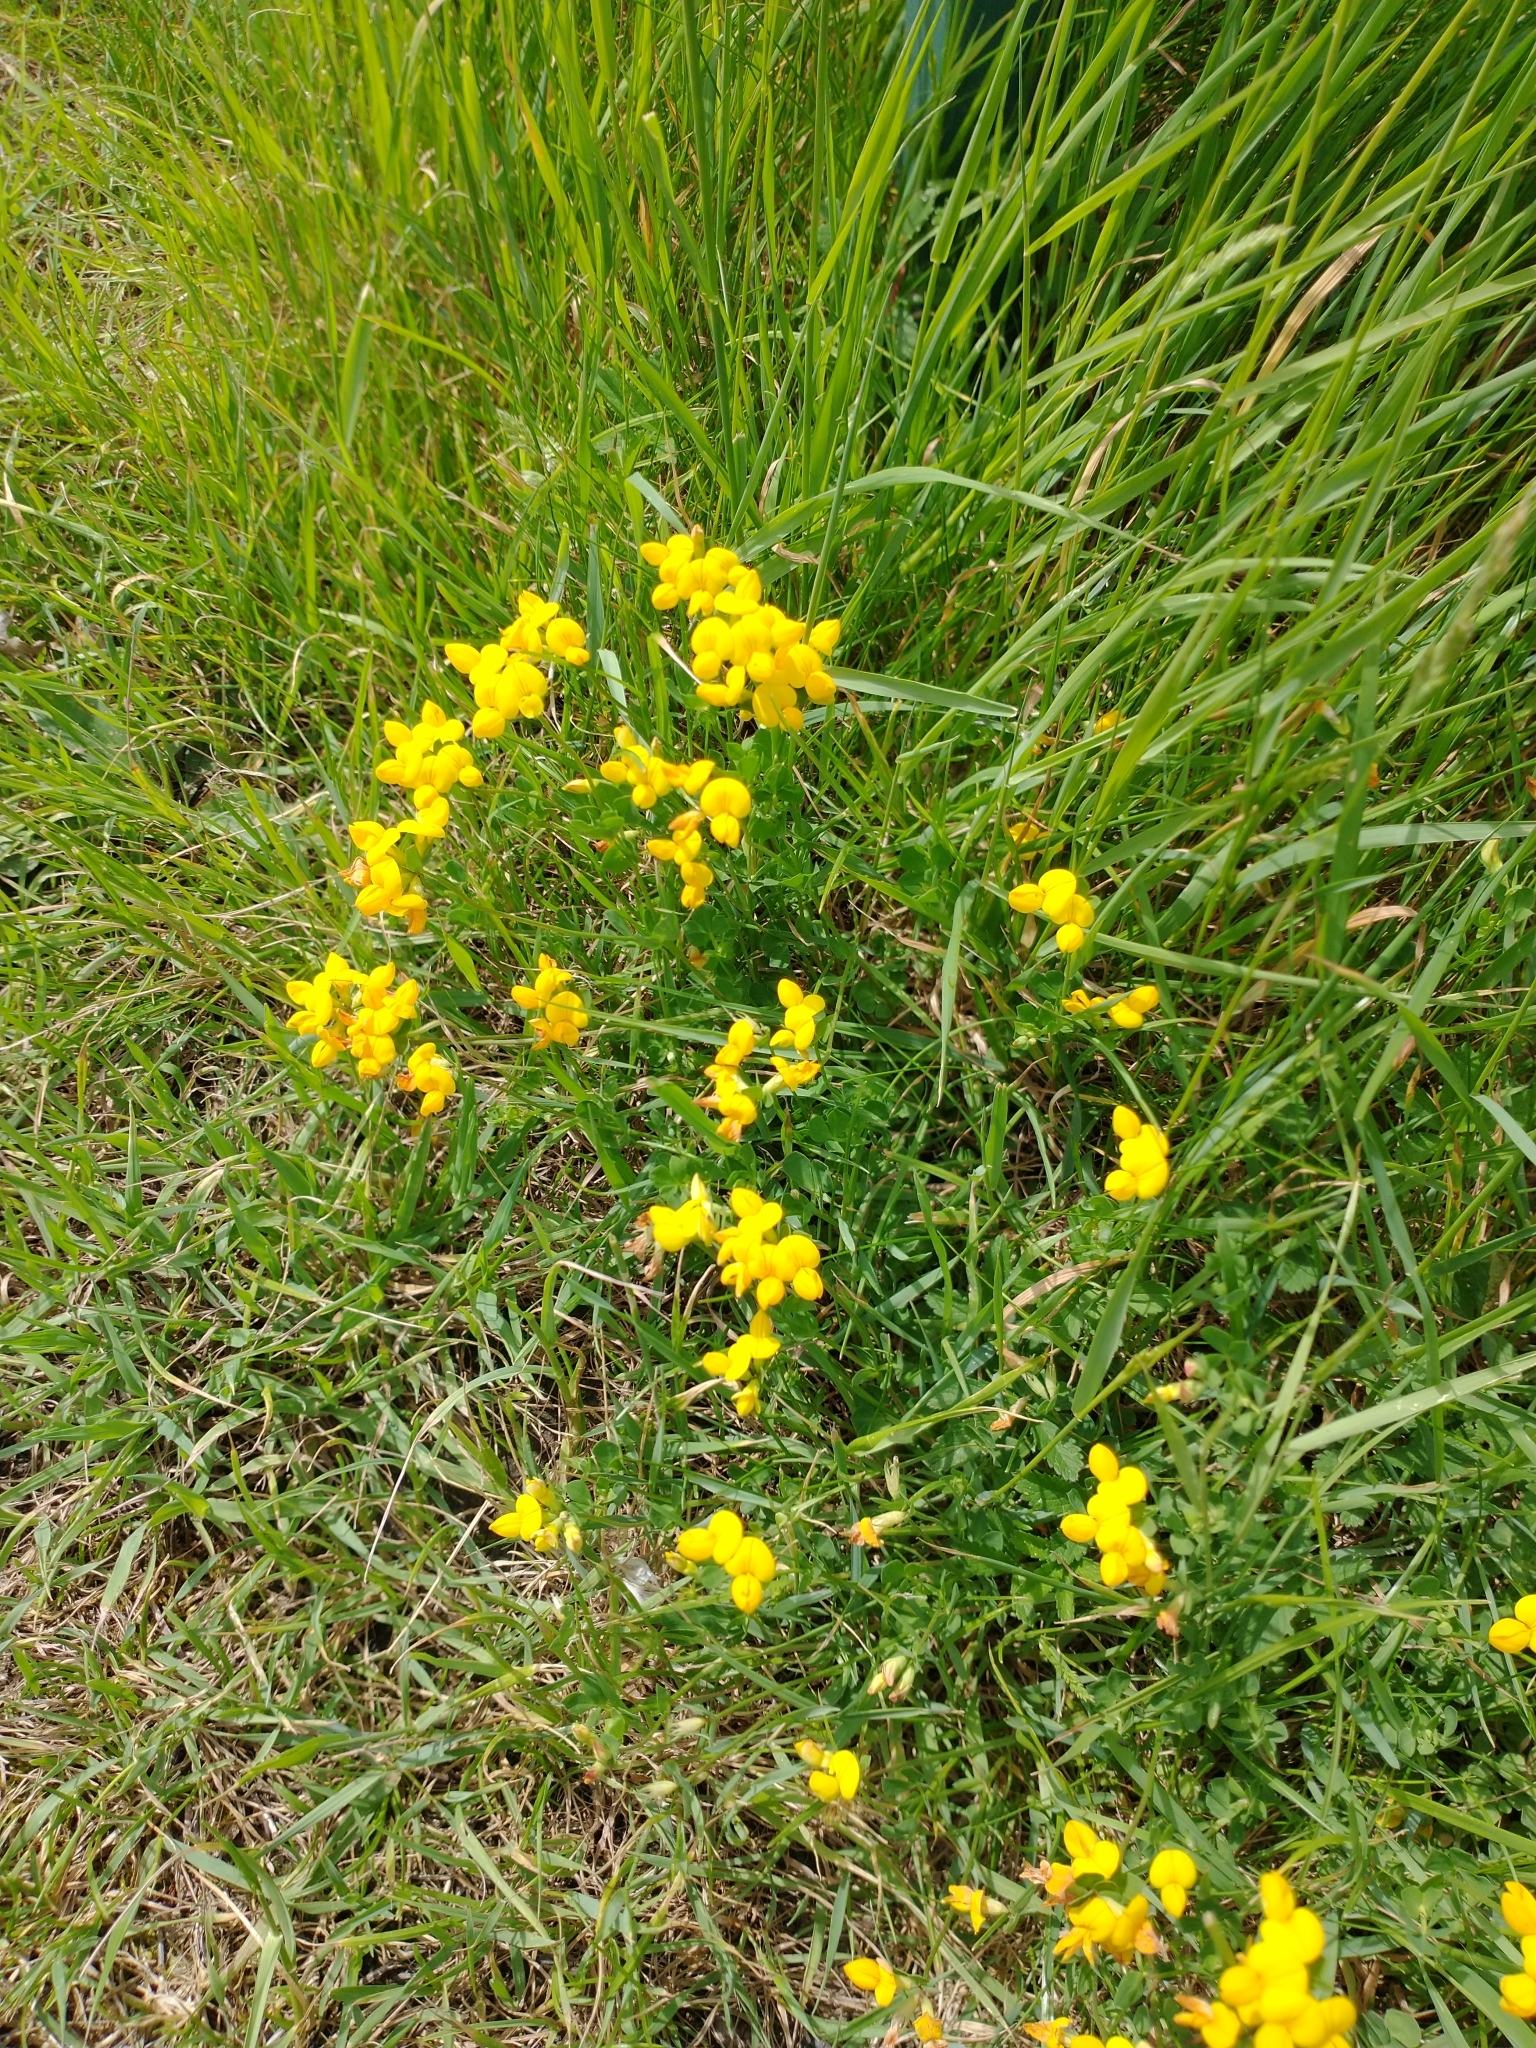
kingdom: Plantae
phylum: Tracheophyta
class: Magnoliopsida
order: Fabales
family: Fabaceae
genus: Lotus
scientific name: Lotus corniculatus
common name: Common bird's-foot-trefoil
